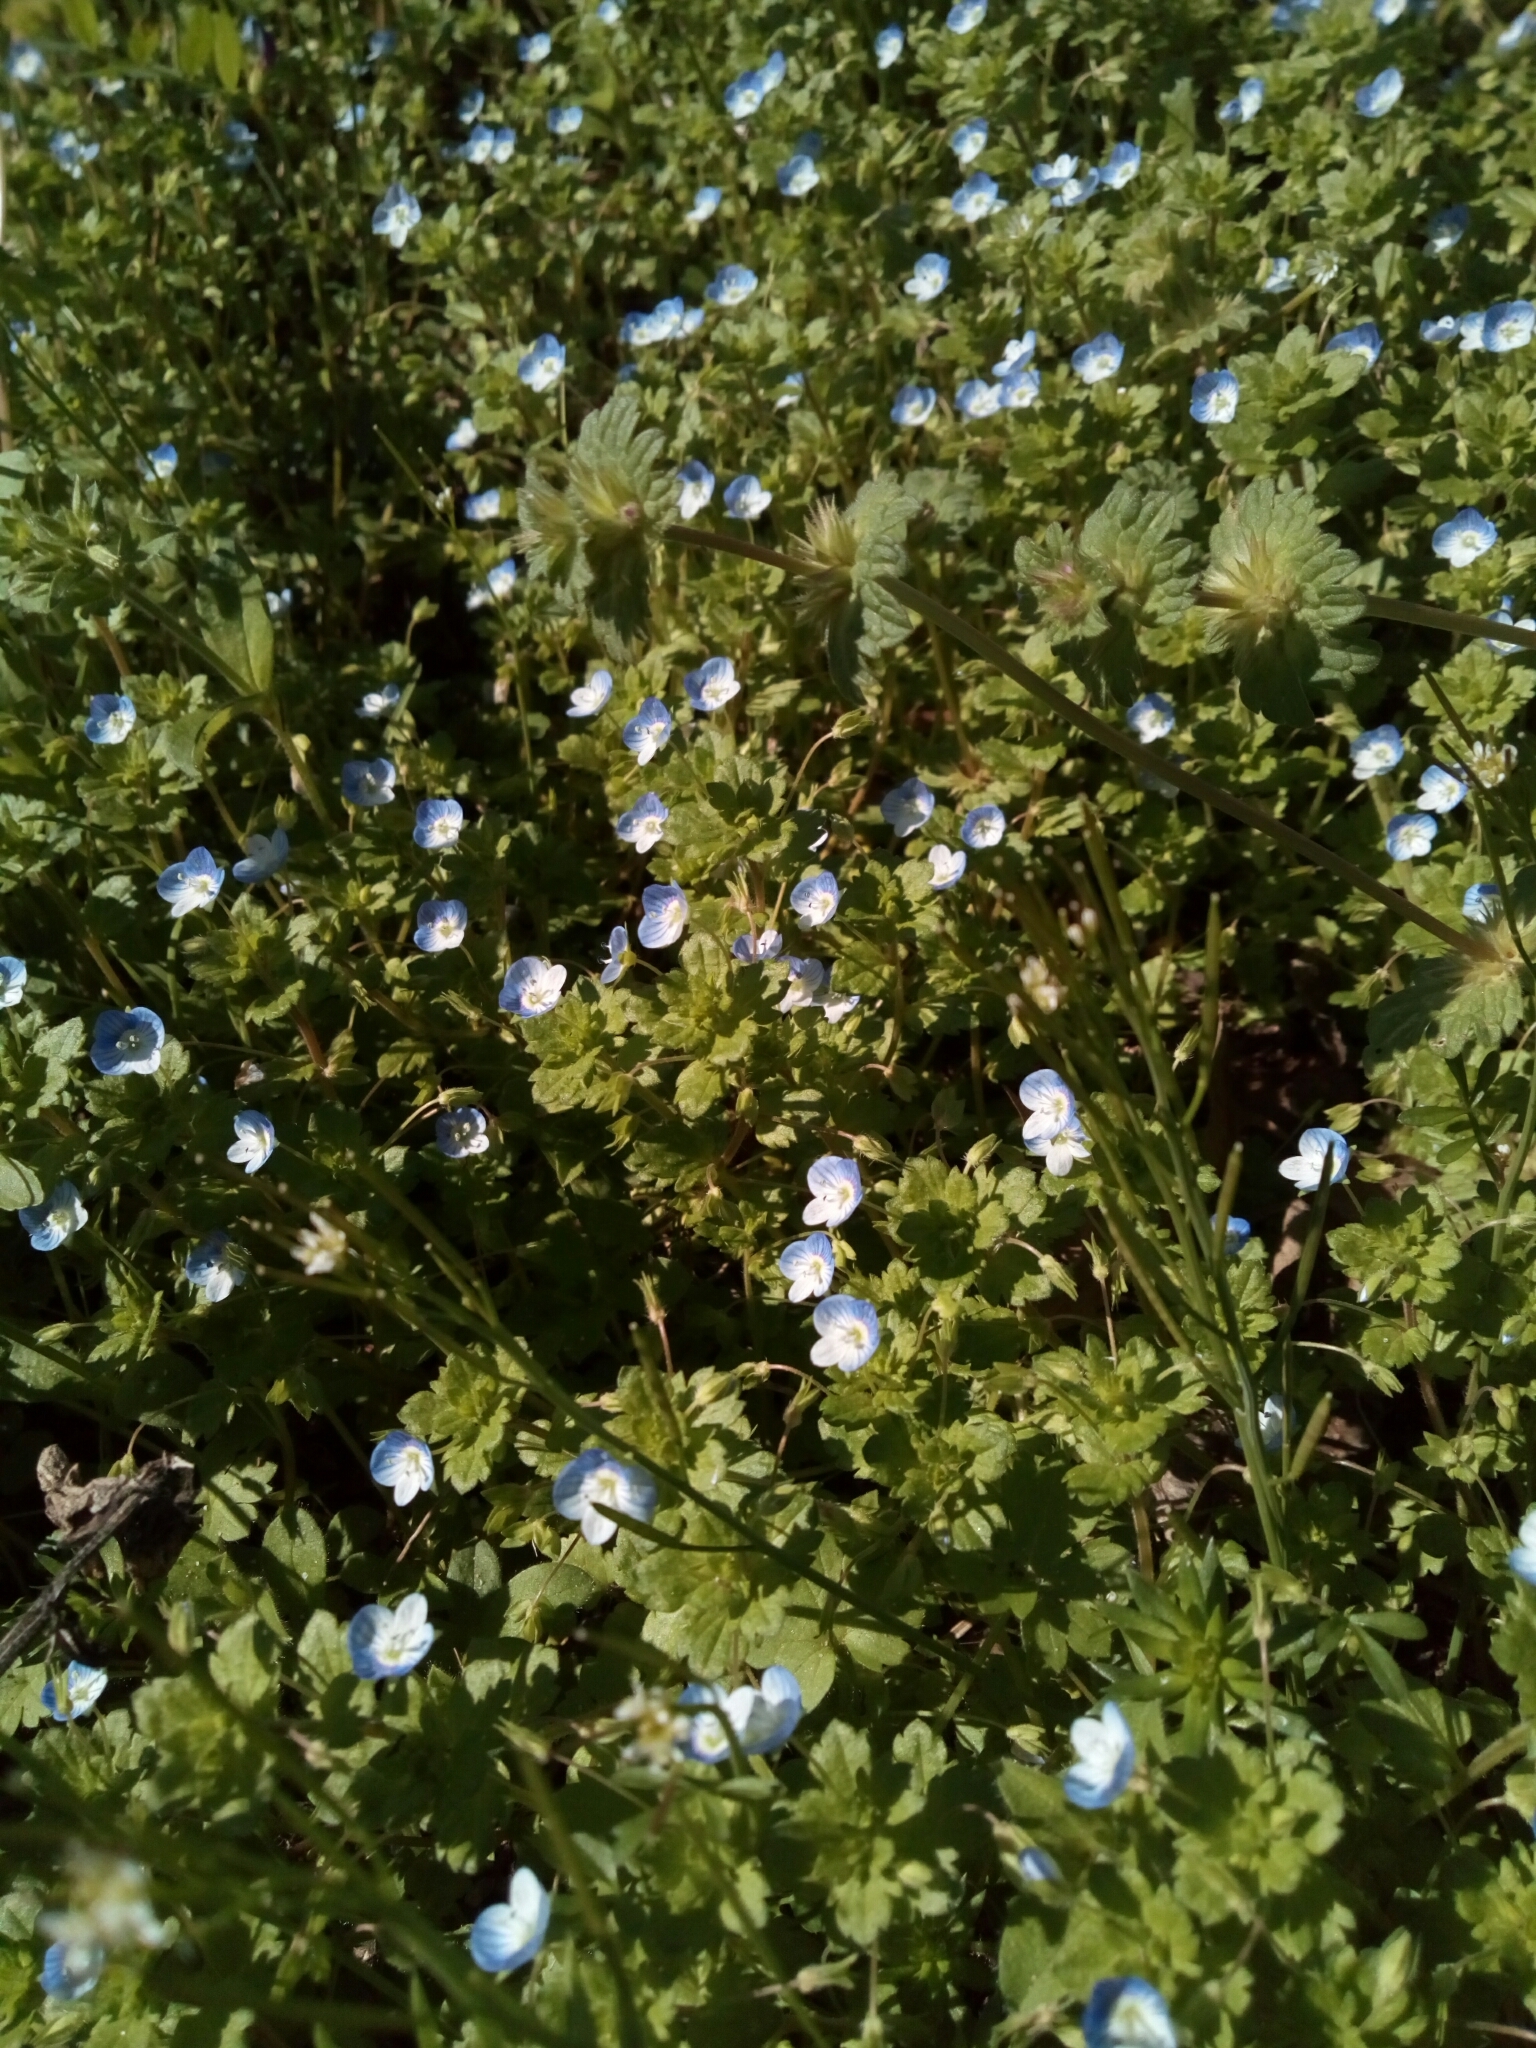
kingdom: Plantae
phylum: Tracheophyta
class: Magnoliopsida
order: Lamiales
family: Plantaginaceae
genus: Veronica
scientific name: Veronica persica
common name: Common field-speedwell
